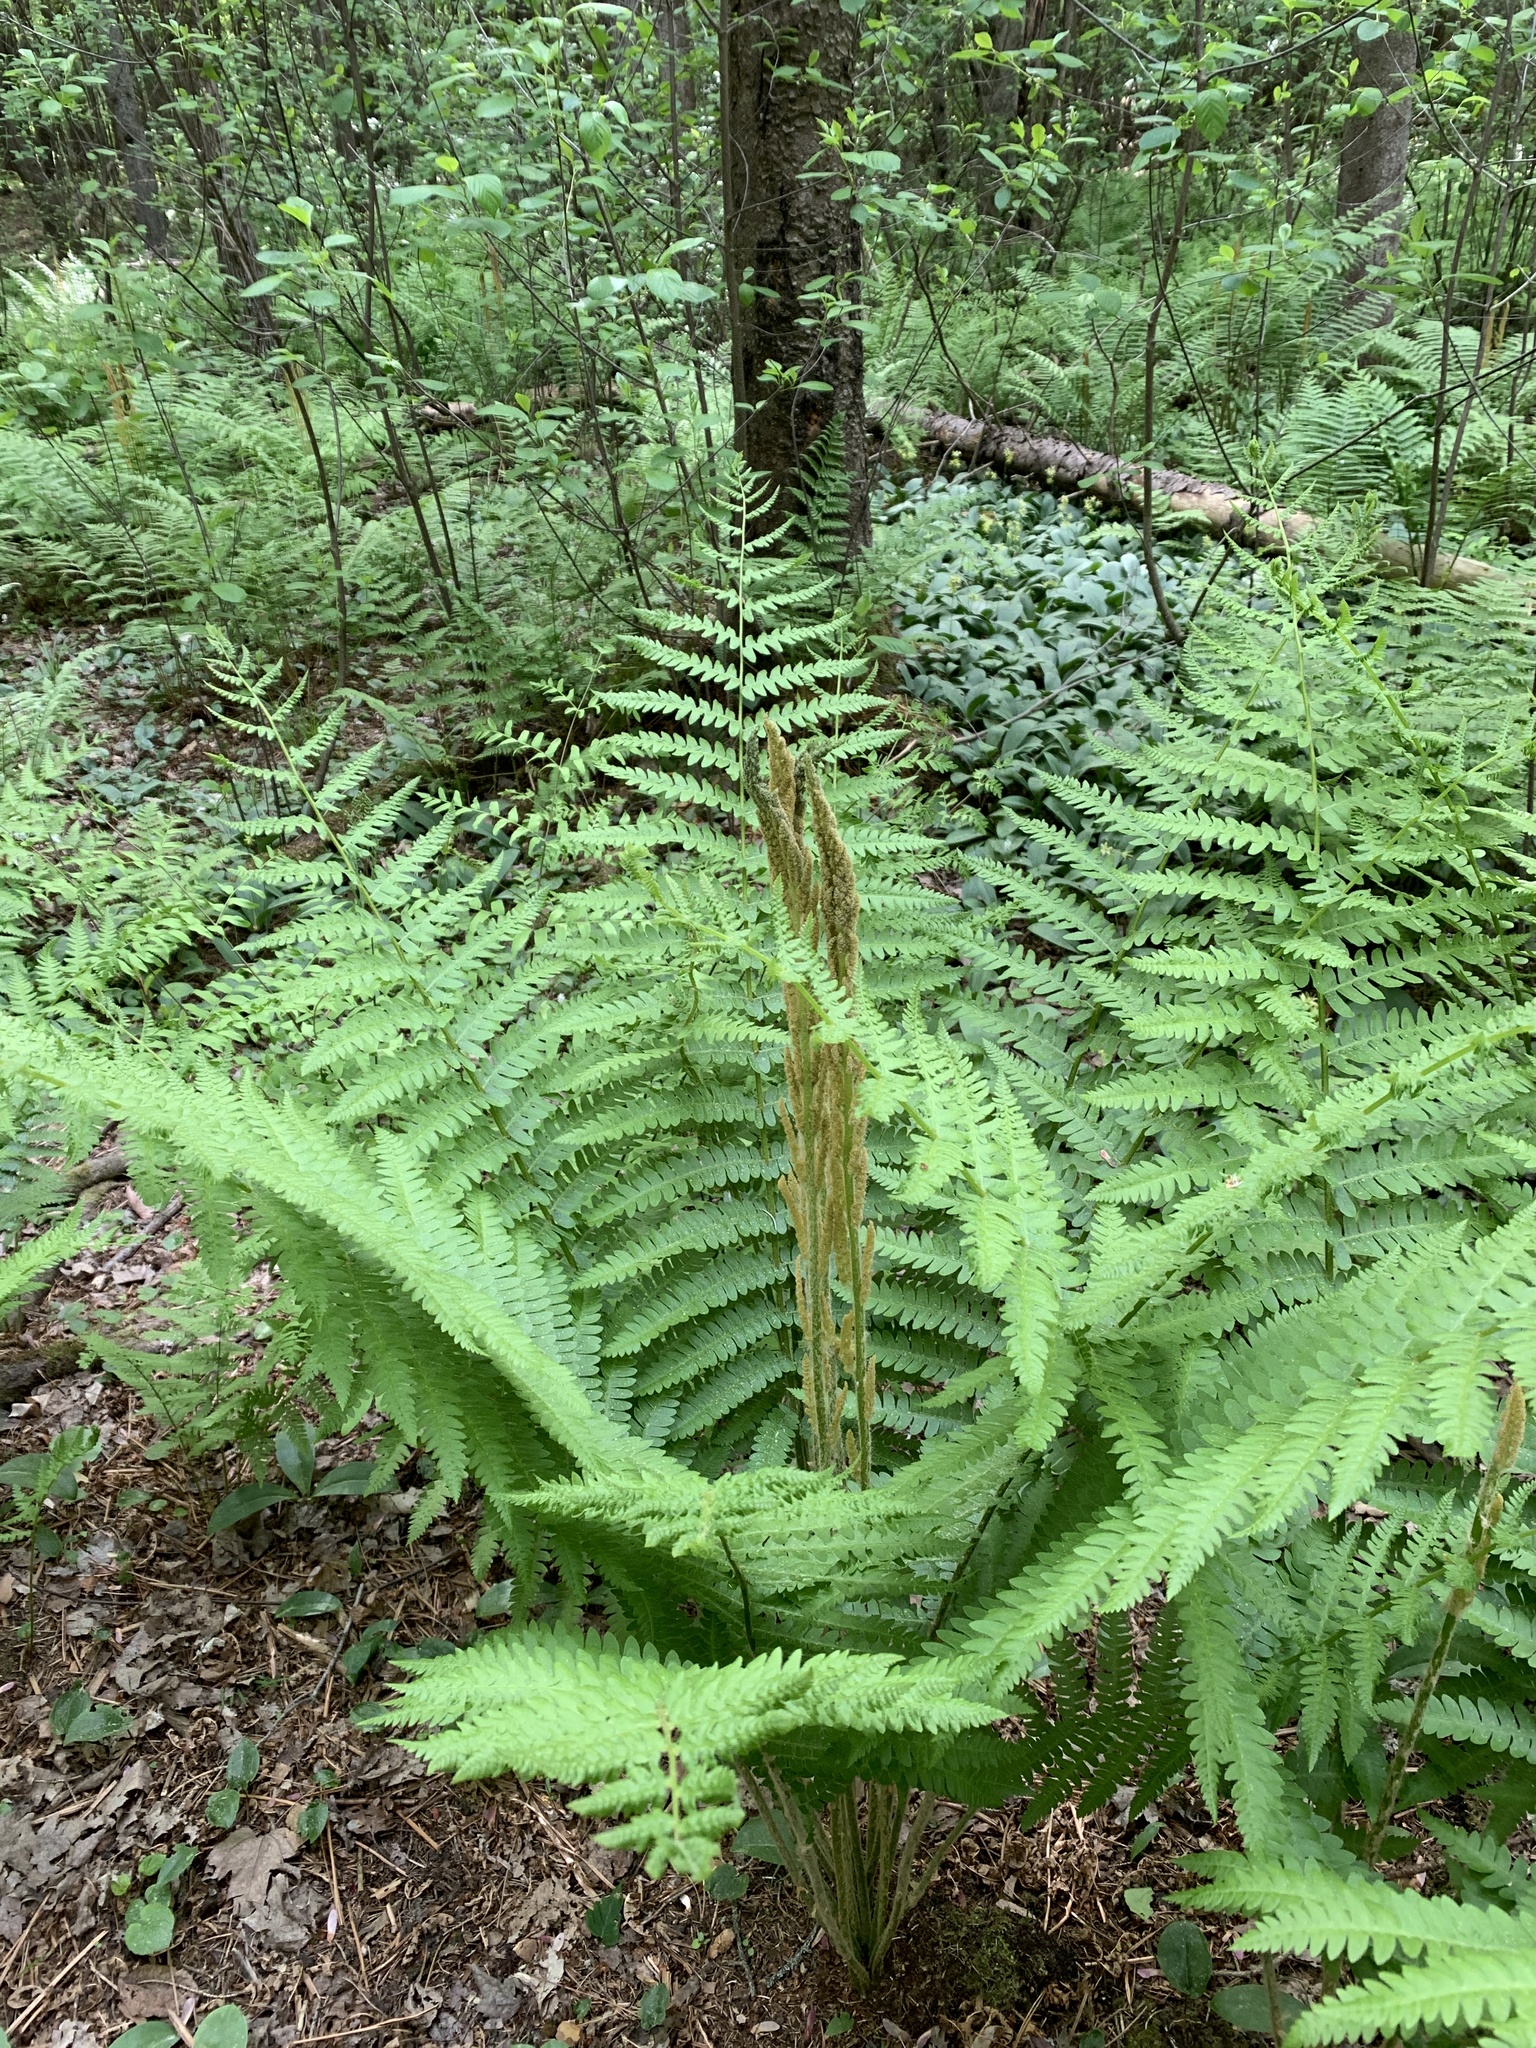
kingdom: Plantae
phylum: Tracheophyta
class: Polypodiopsida
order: Osmundales
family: Osmundaceae
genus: Osmundastrum
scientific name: Osmundastrum cinnamomeum
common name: Cinnamon fern
